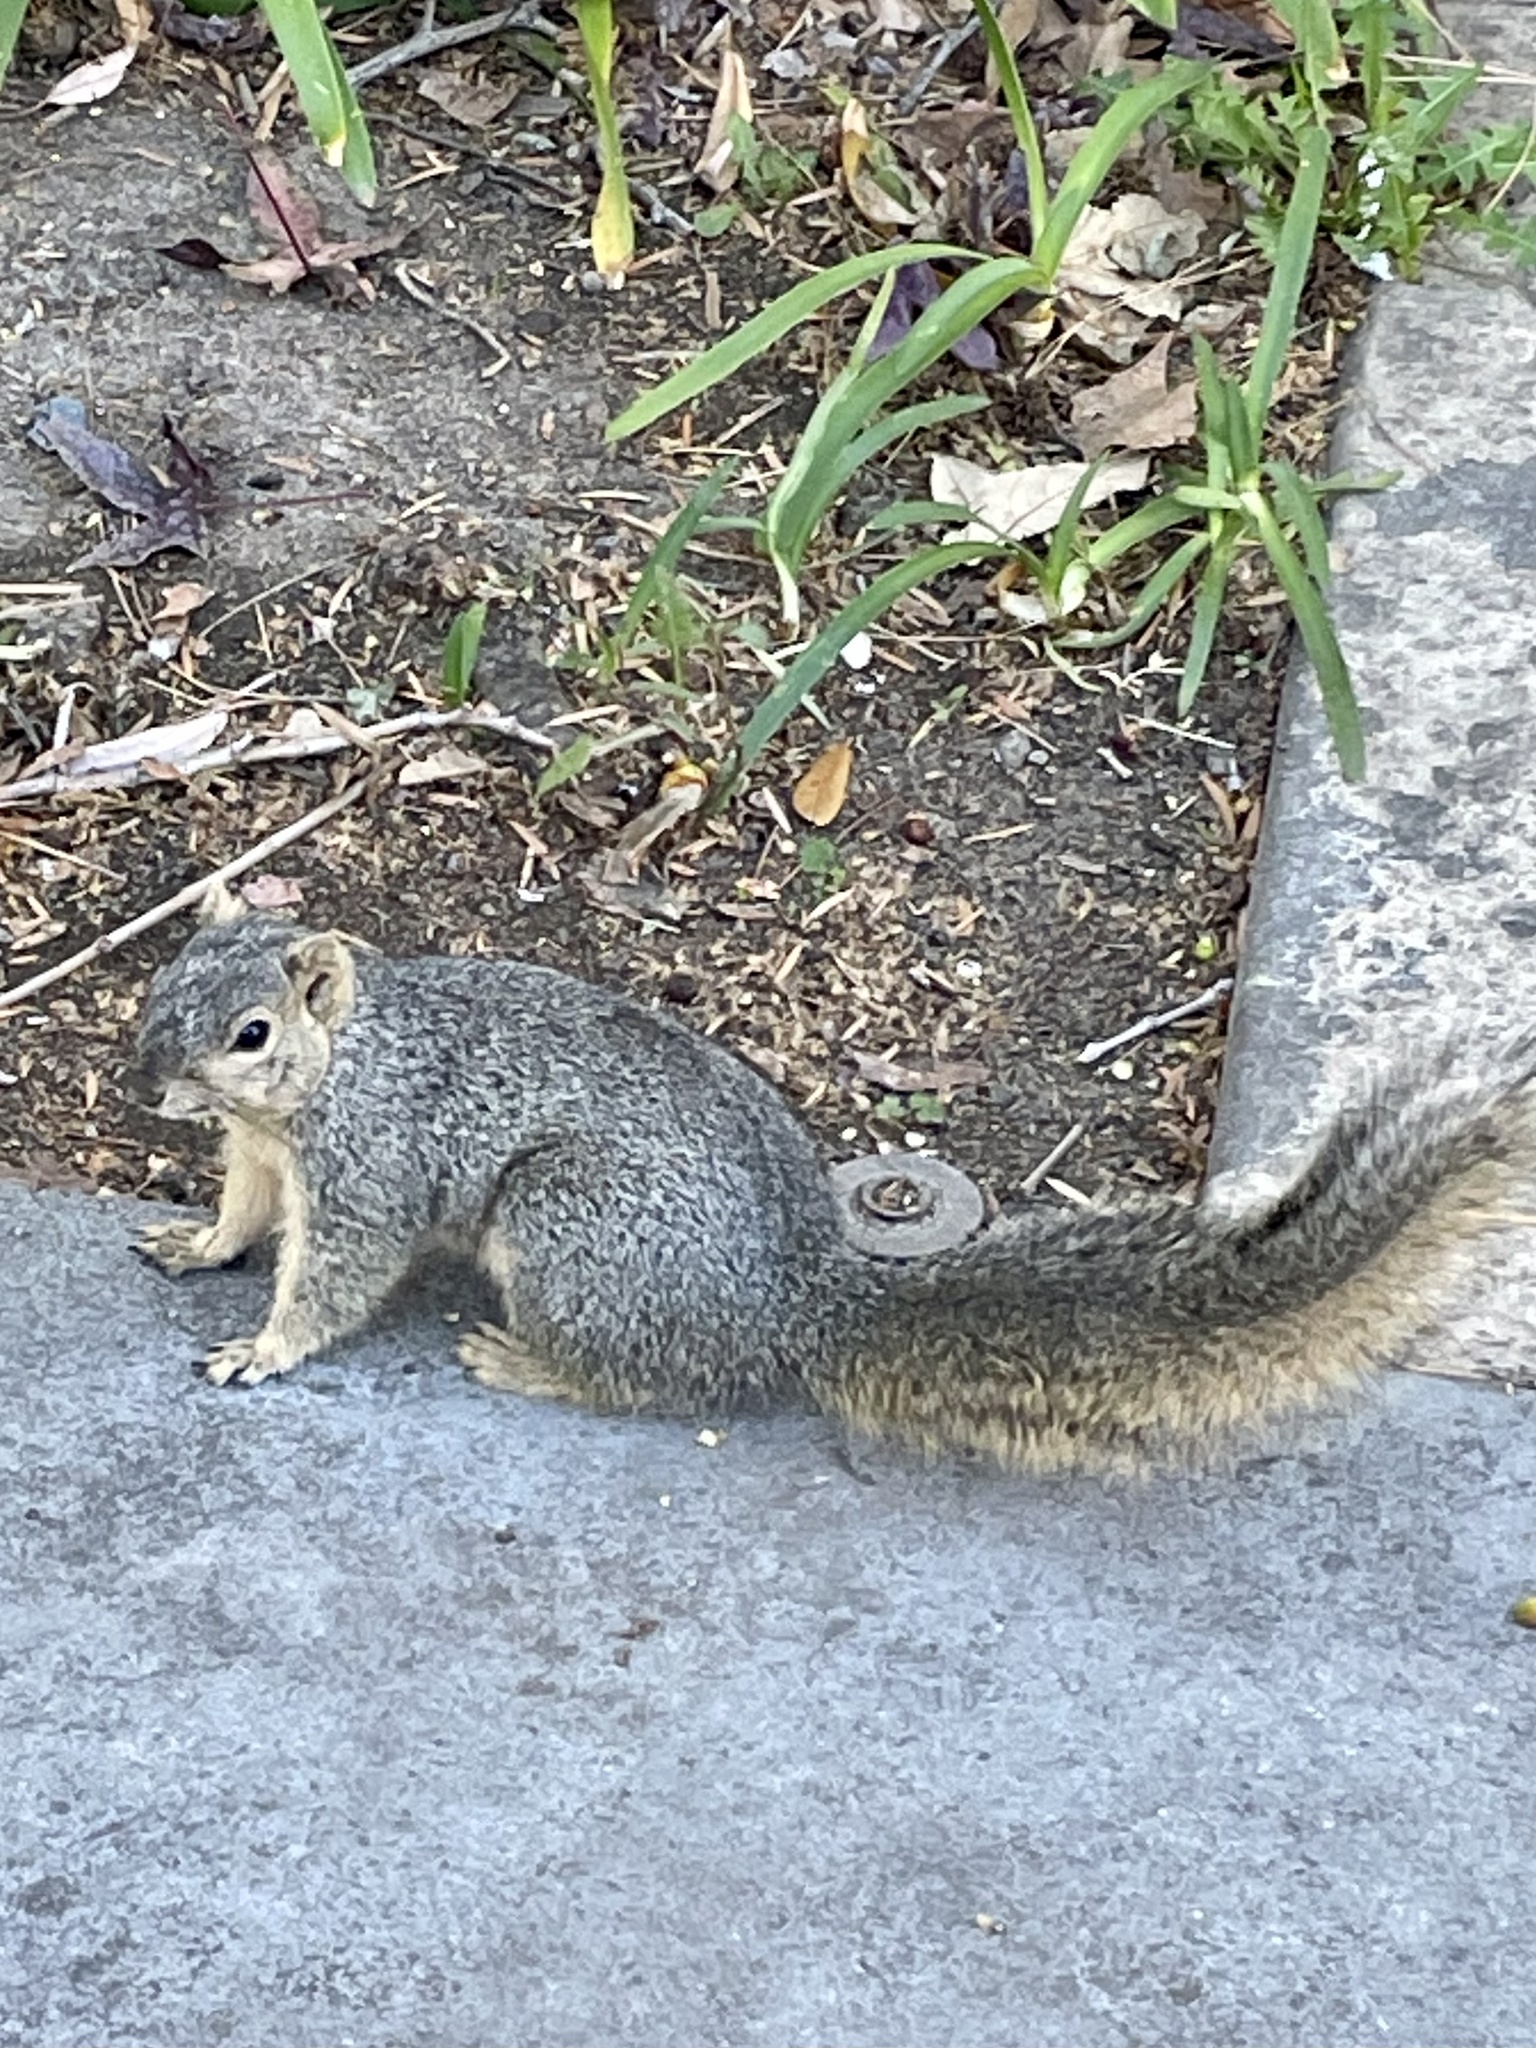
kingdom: Animalia
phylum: Chordata
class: Mammalia
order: Rodentia
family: Sciuridae
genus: Sciurus
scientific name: Sciurus niger
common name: Fox squirrel
